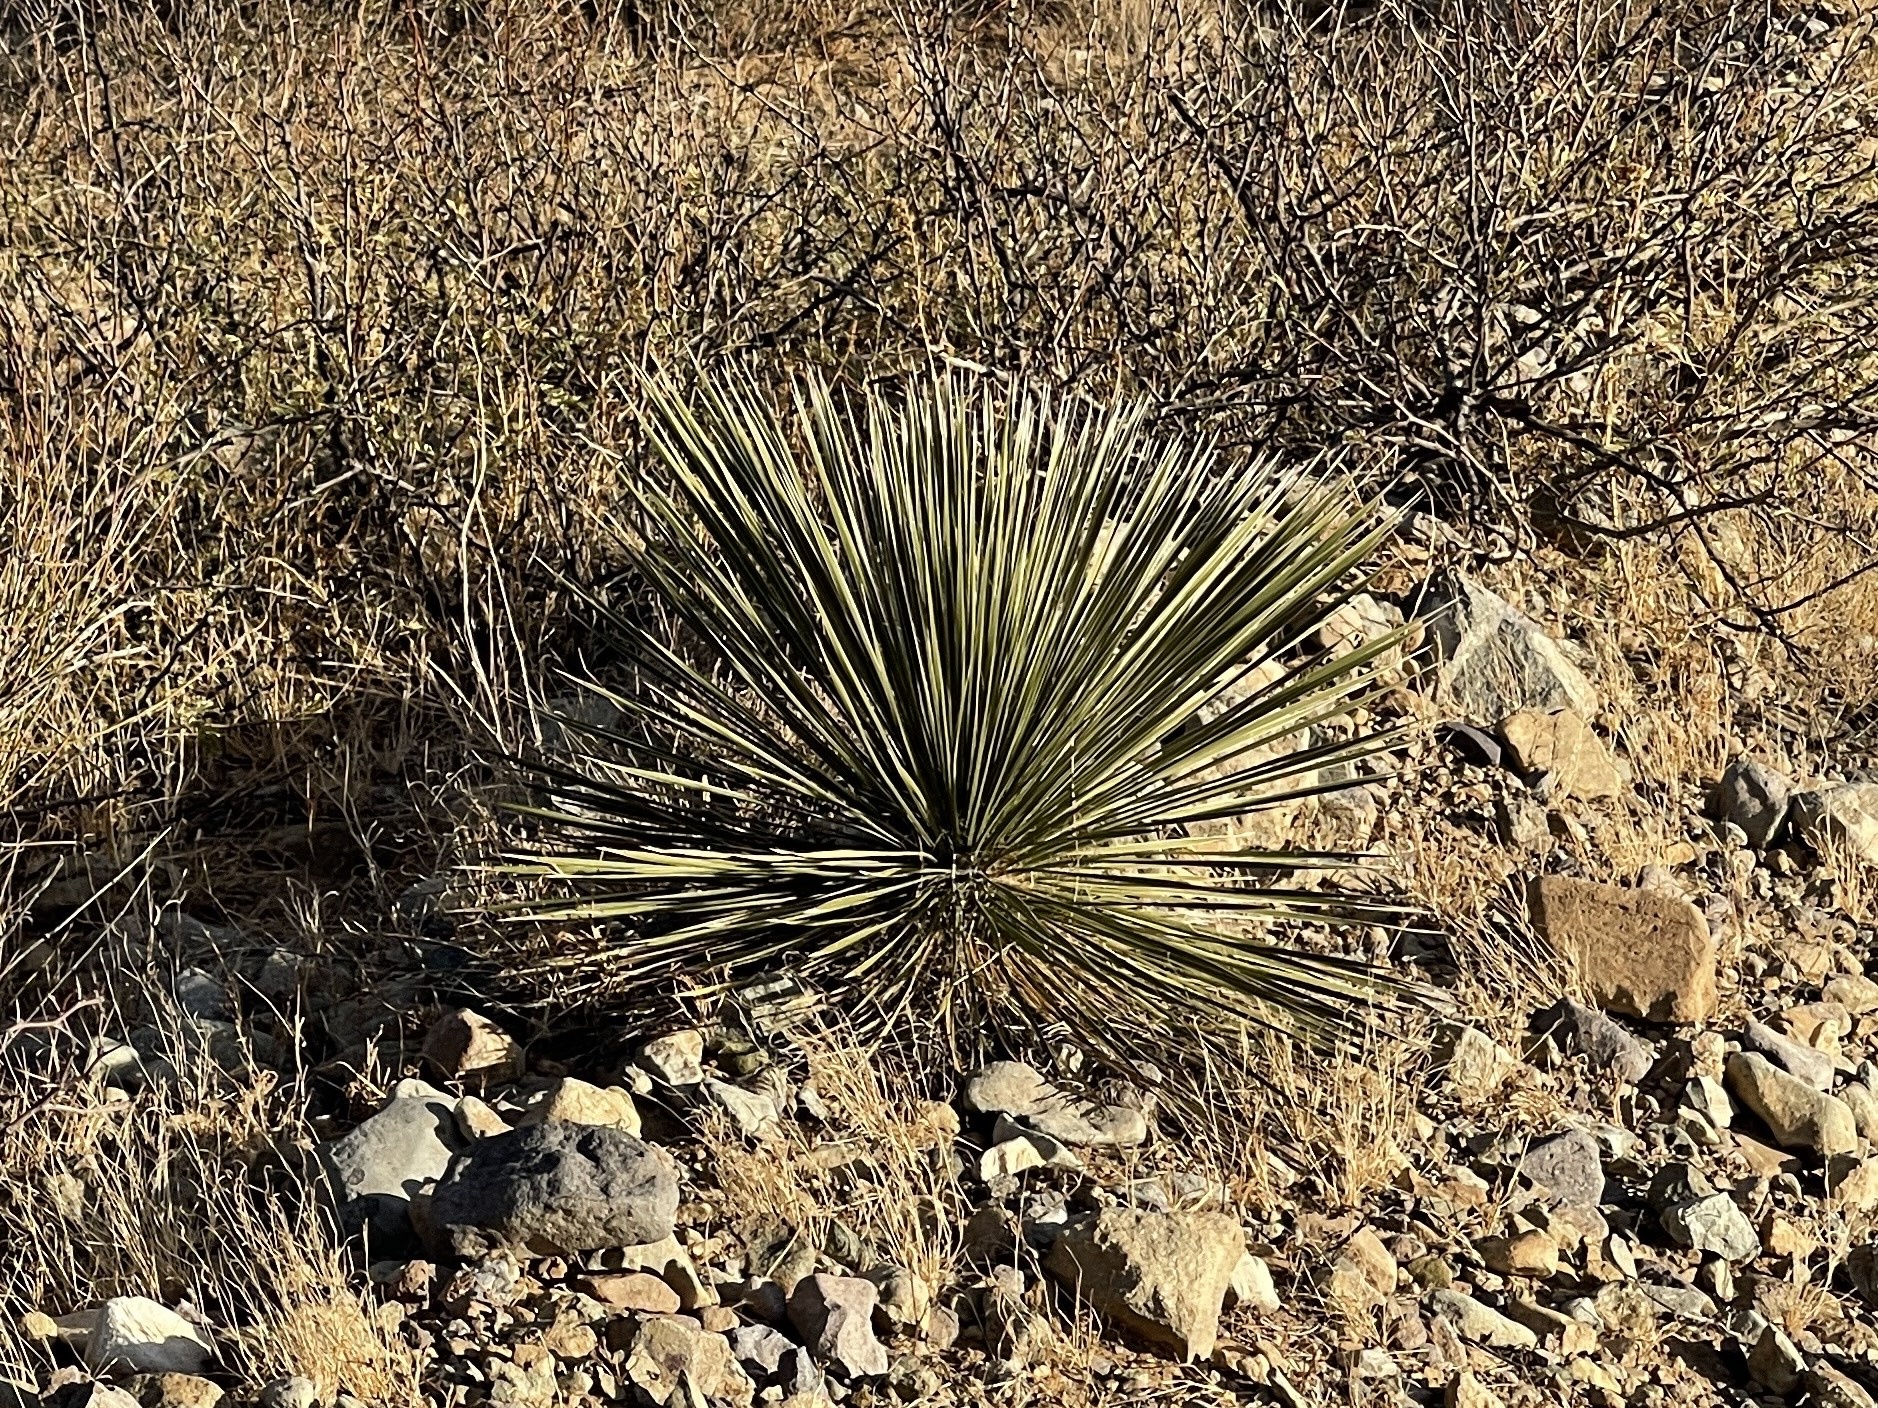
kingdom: Plantae
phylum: Tracheophyta
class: Liliopsida
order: Asparagales
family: Asparagaceae
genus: Yucca
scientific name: Yucca elata
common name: Palmella
